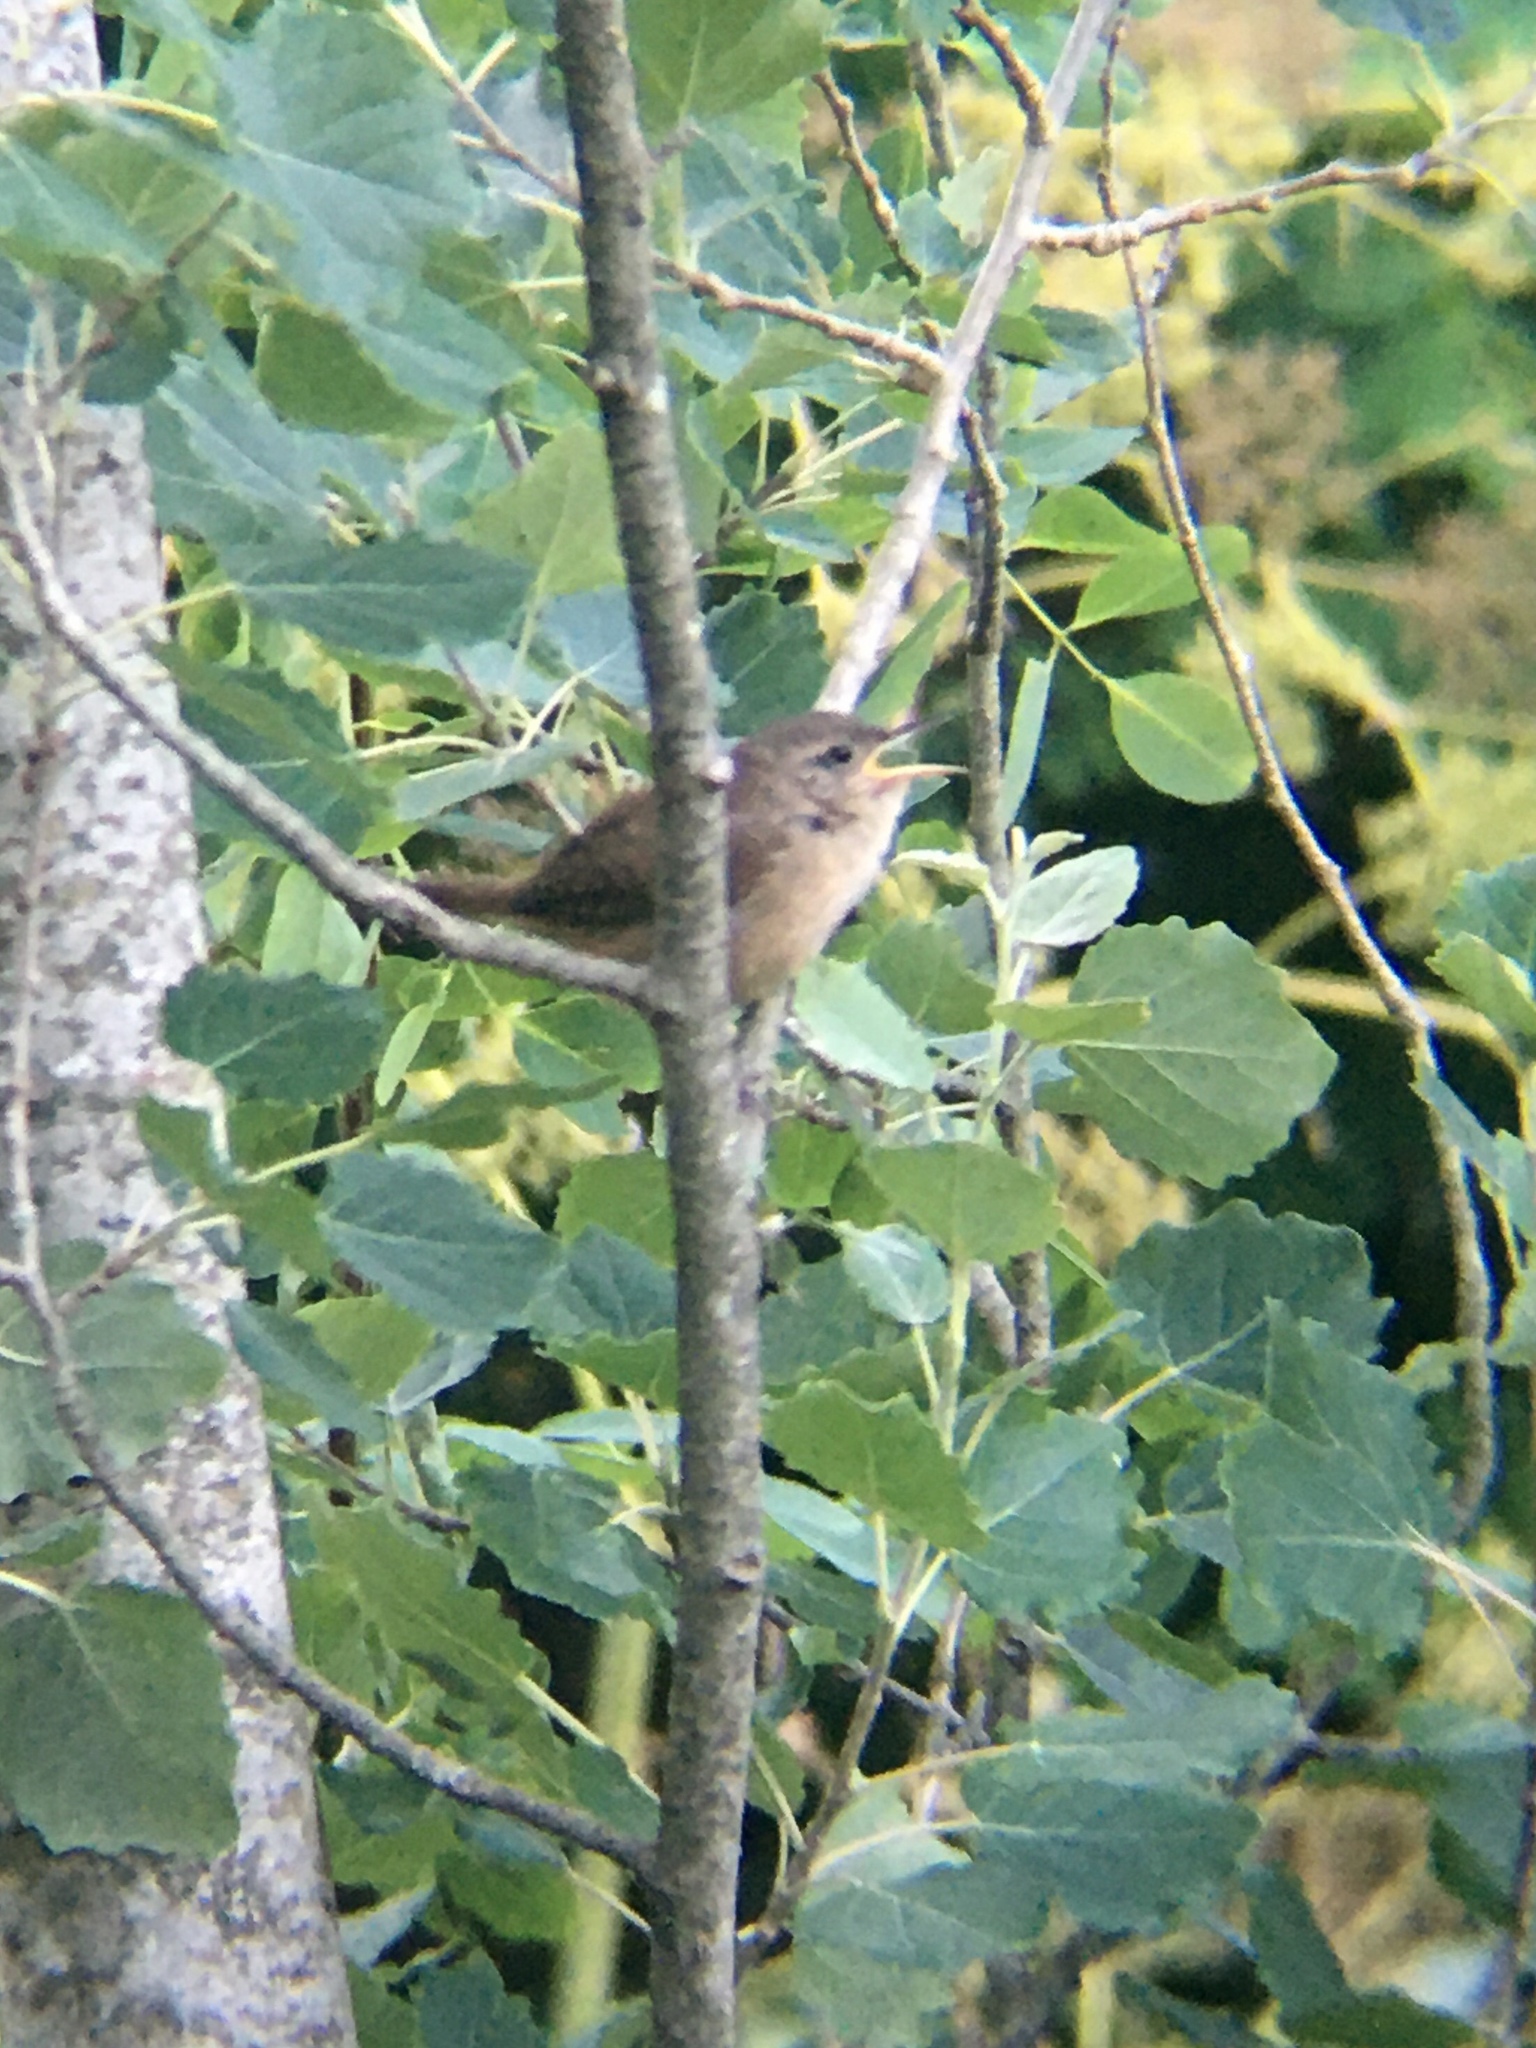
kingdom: Animalia
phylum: Chordata
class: Aves
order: Passeriformes
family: Troglodytidae
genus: Troglodytes
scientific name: Troglodytes aedon
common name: House wren
